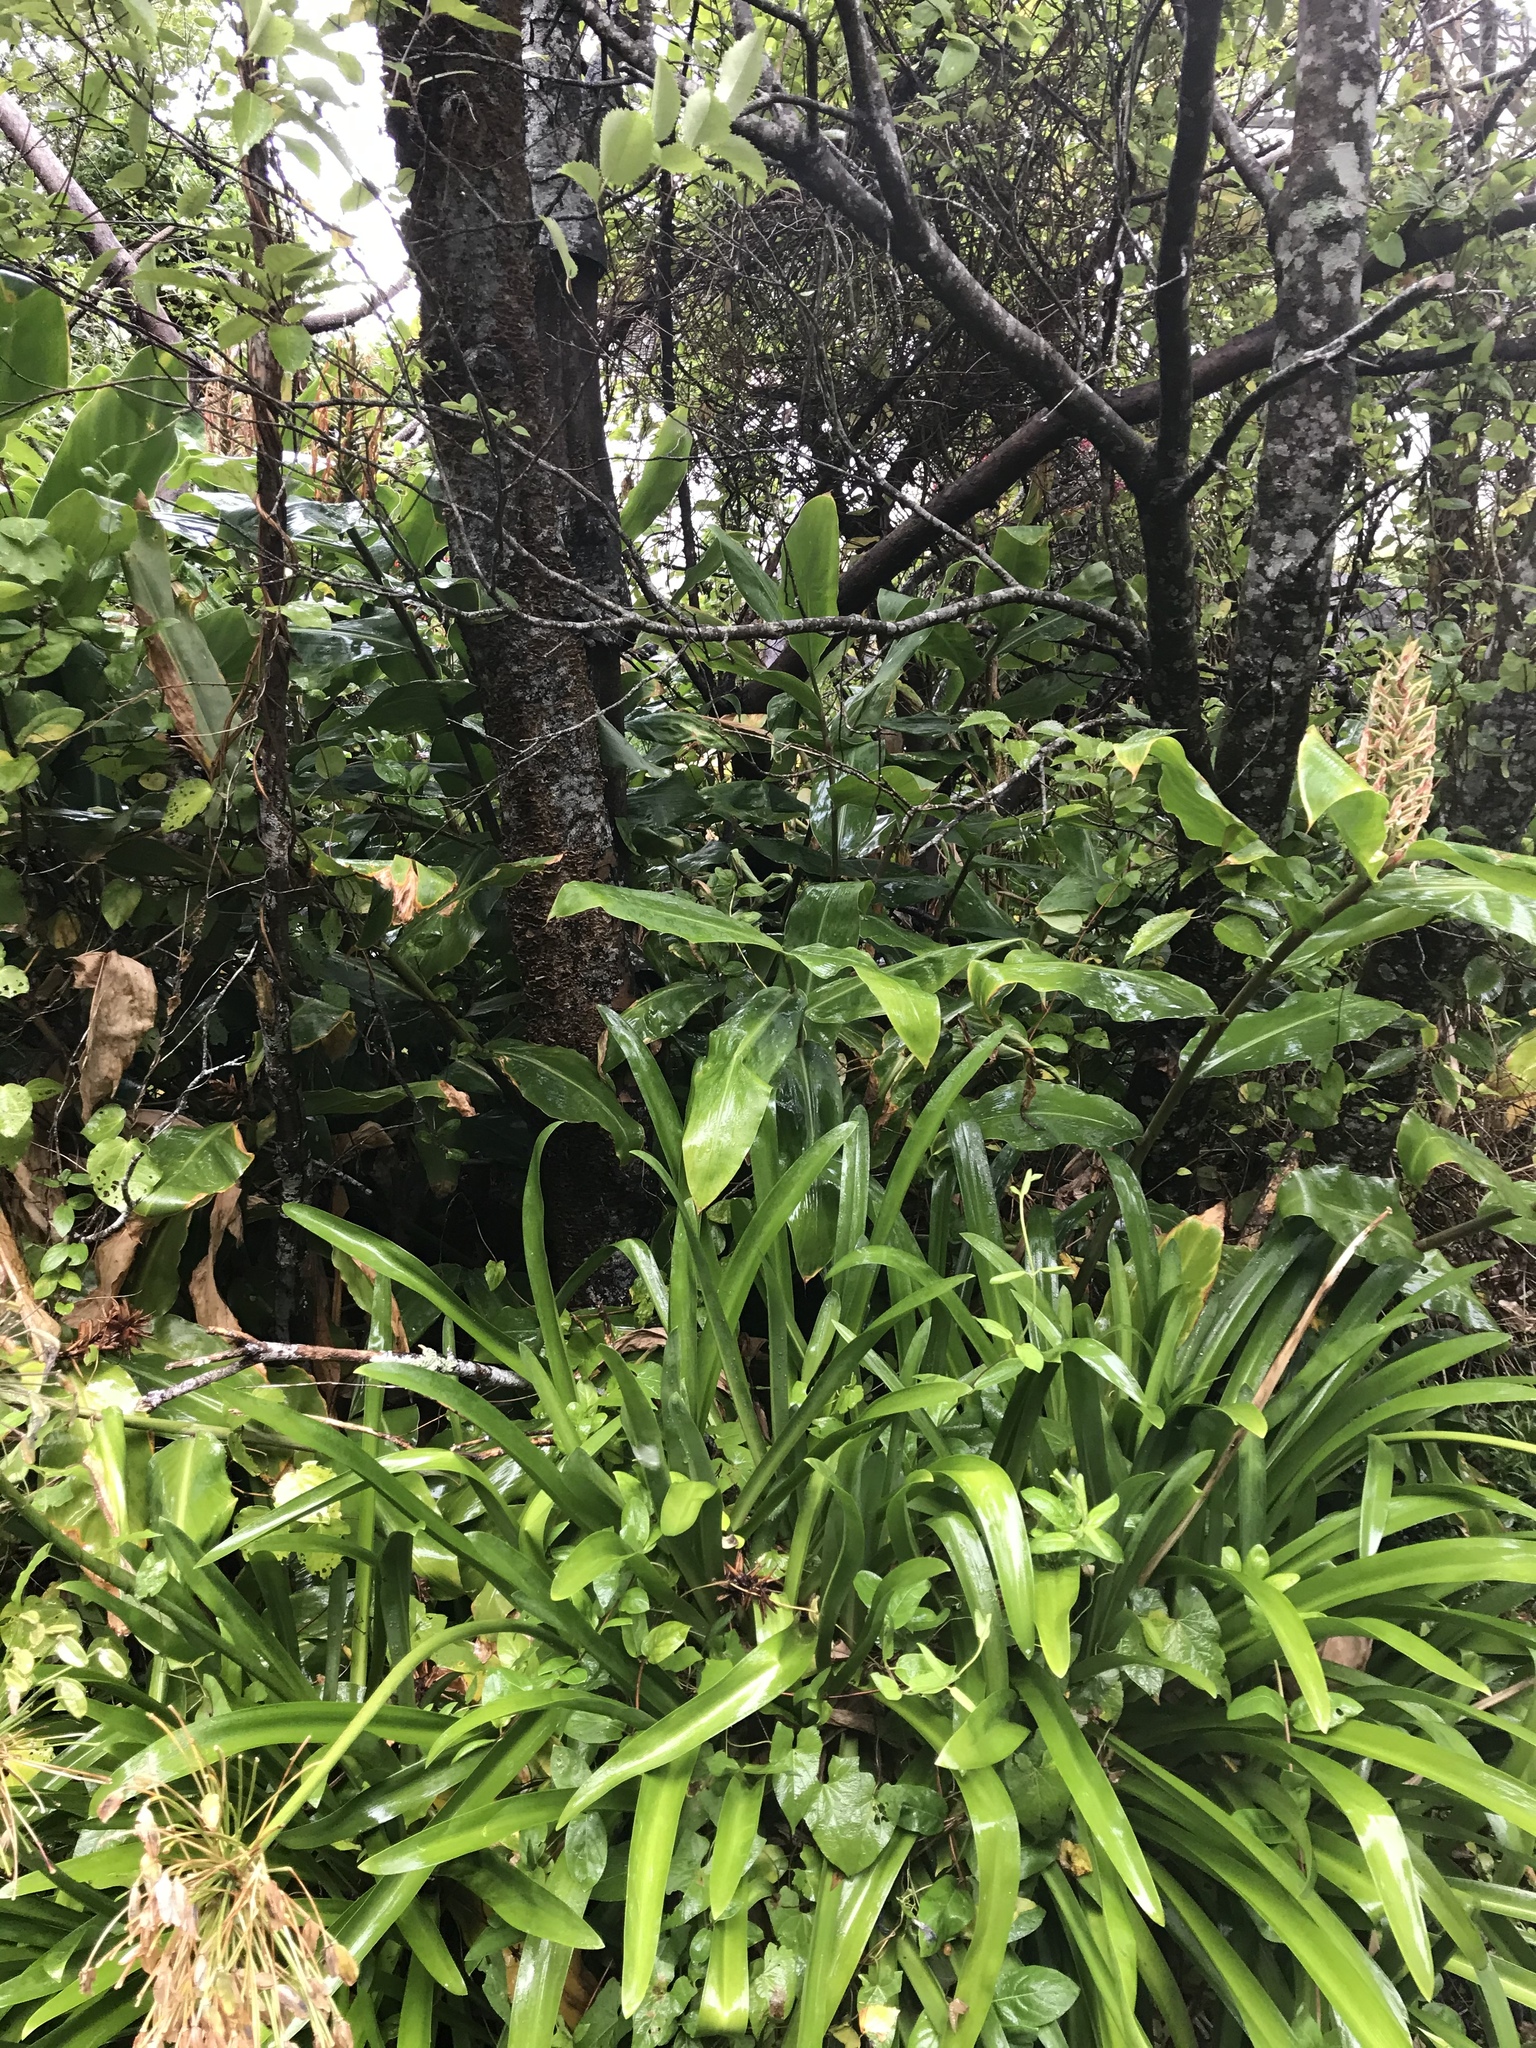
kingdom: Plantae
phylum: Tracheophyta
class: Liliopsida
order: Zingiberales
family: Zingiberaceae
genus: Hedychium
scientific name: Hedychium gardnerianum
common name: Himalayan ginger
